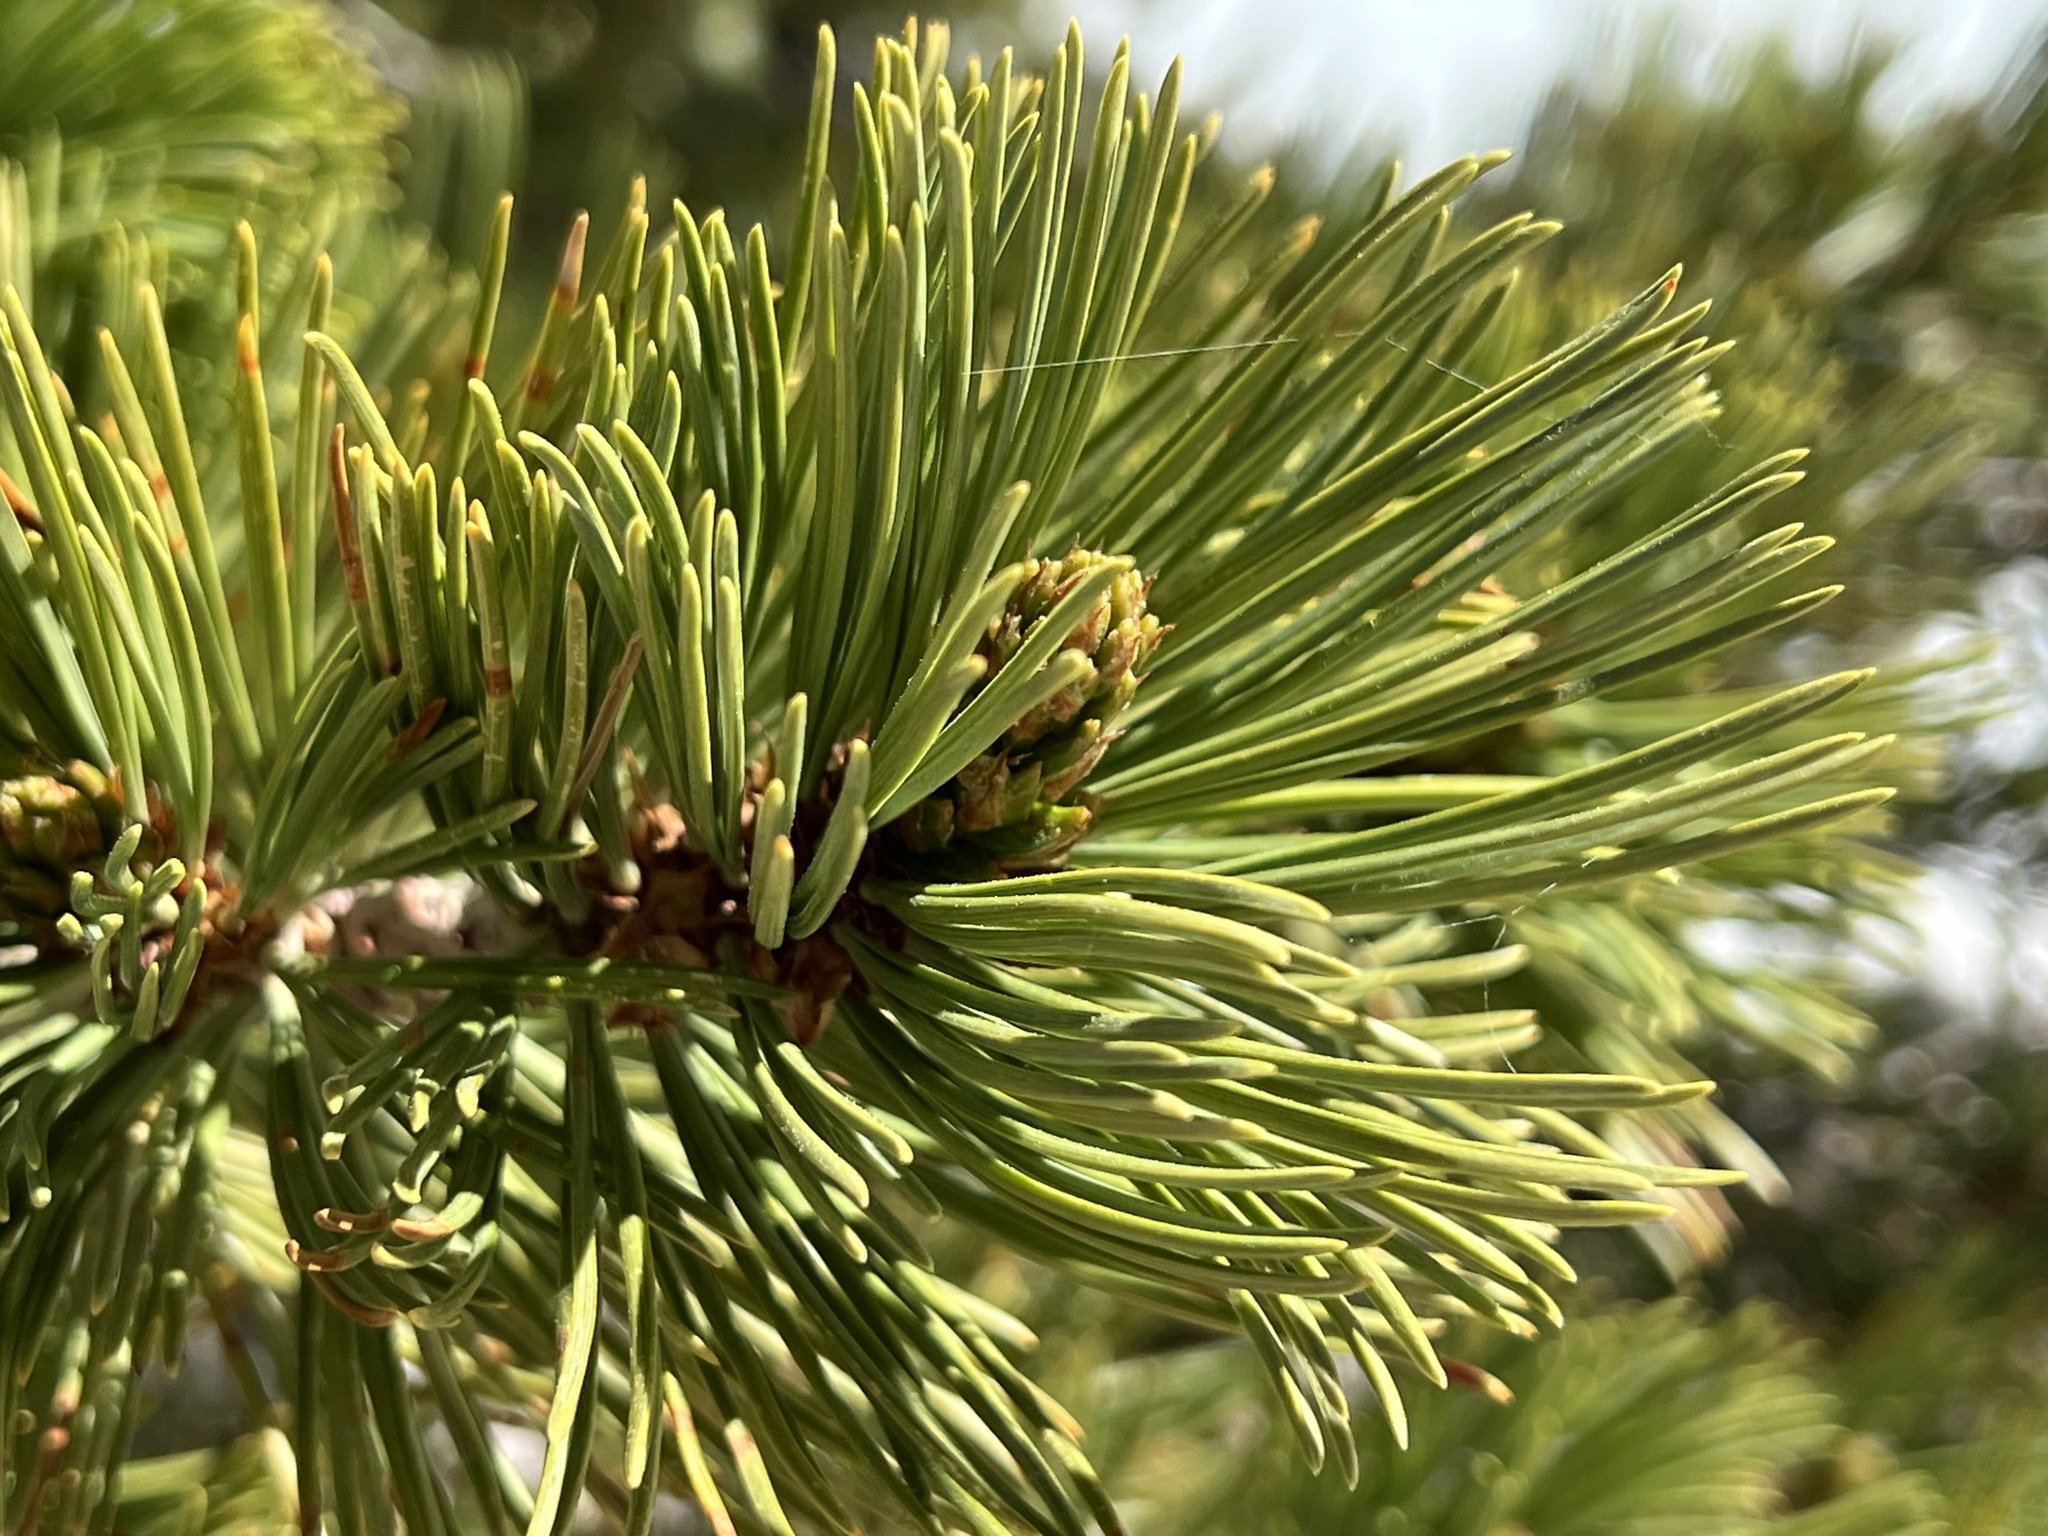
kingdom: Plantae
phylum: Tracheophyta
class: Pinopsida
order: Pinales
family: Pinaceae
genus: Pinus
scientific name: Pinus albicaulis
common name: Whitebark pine
